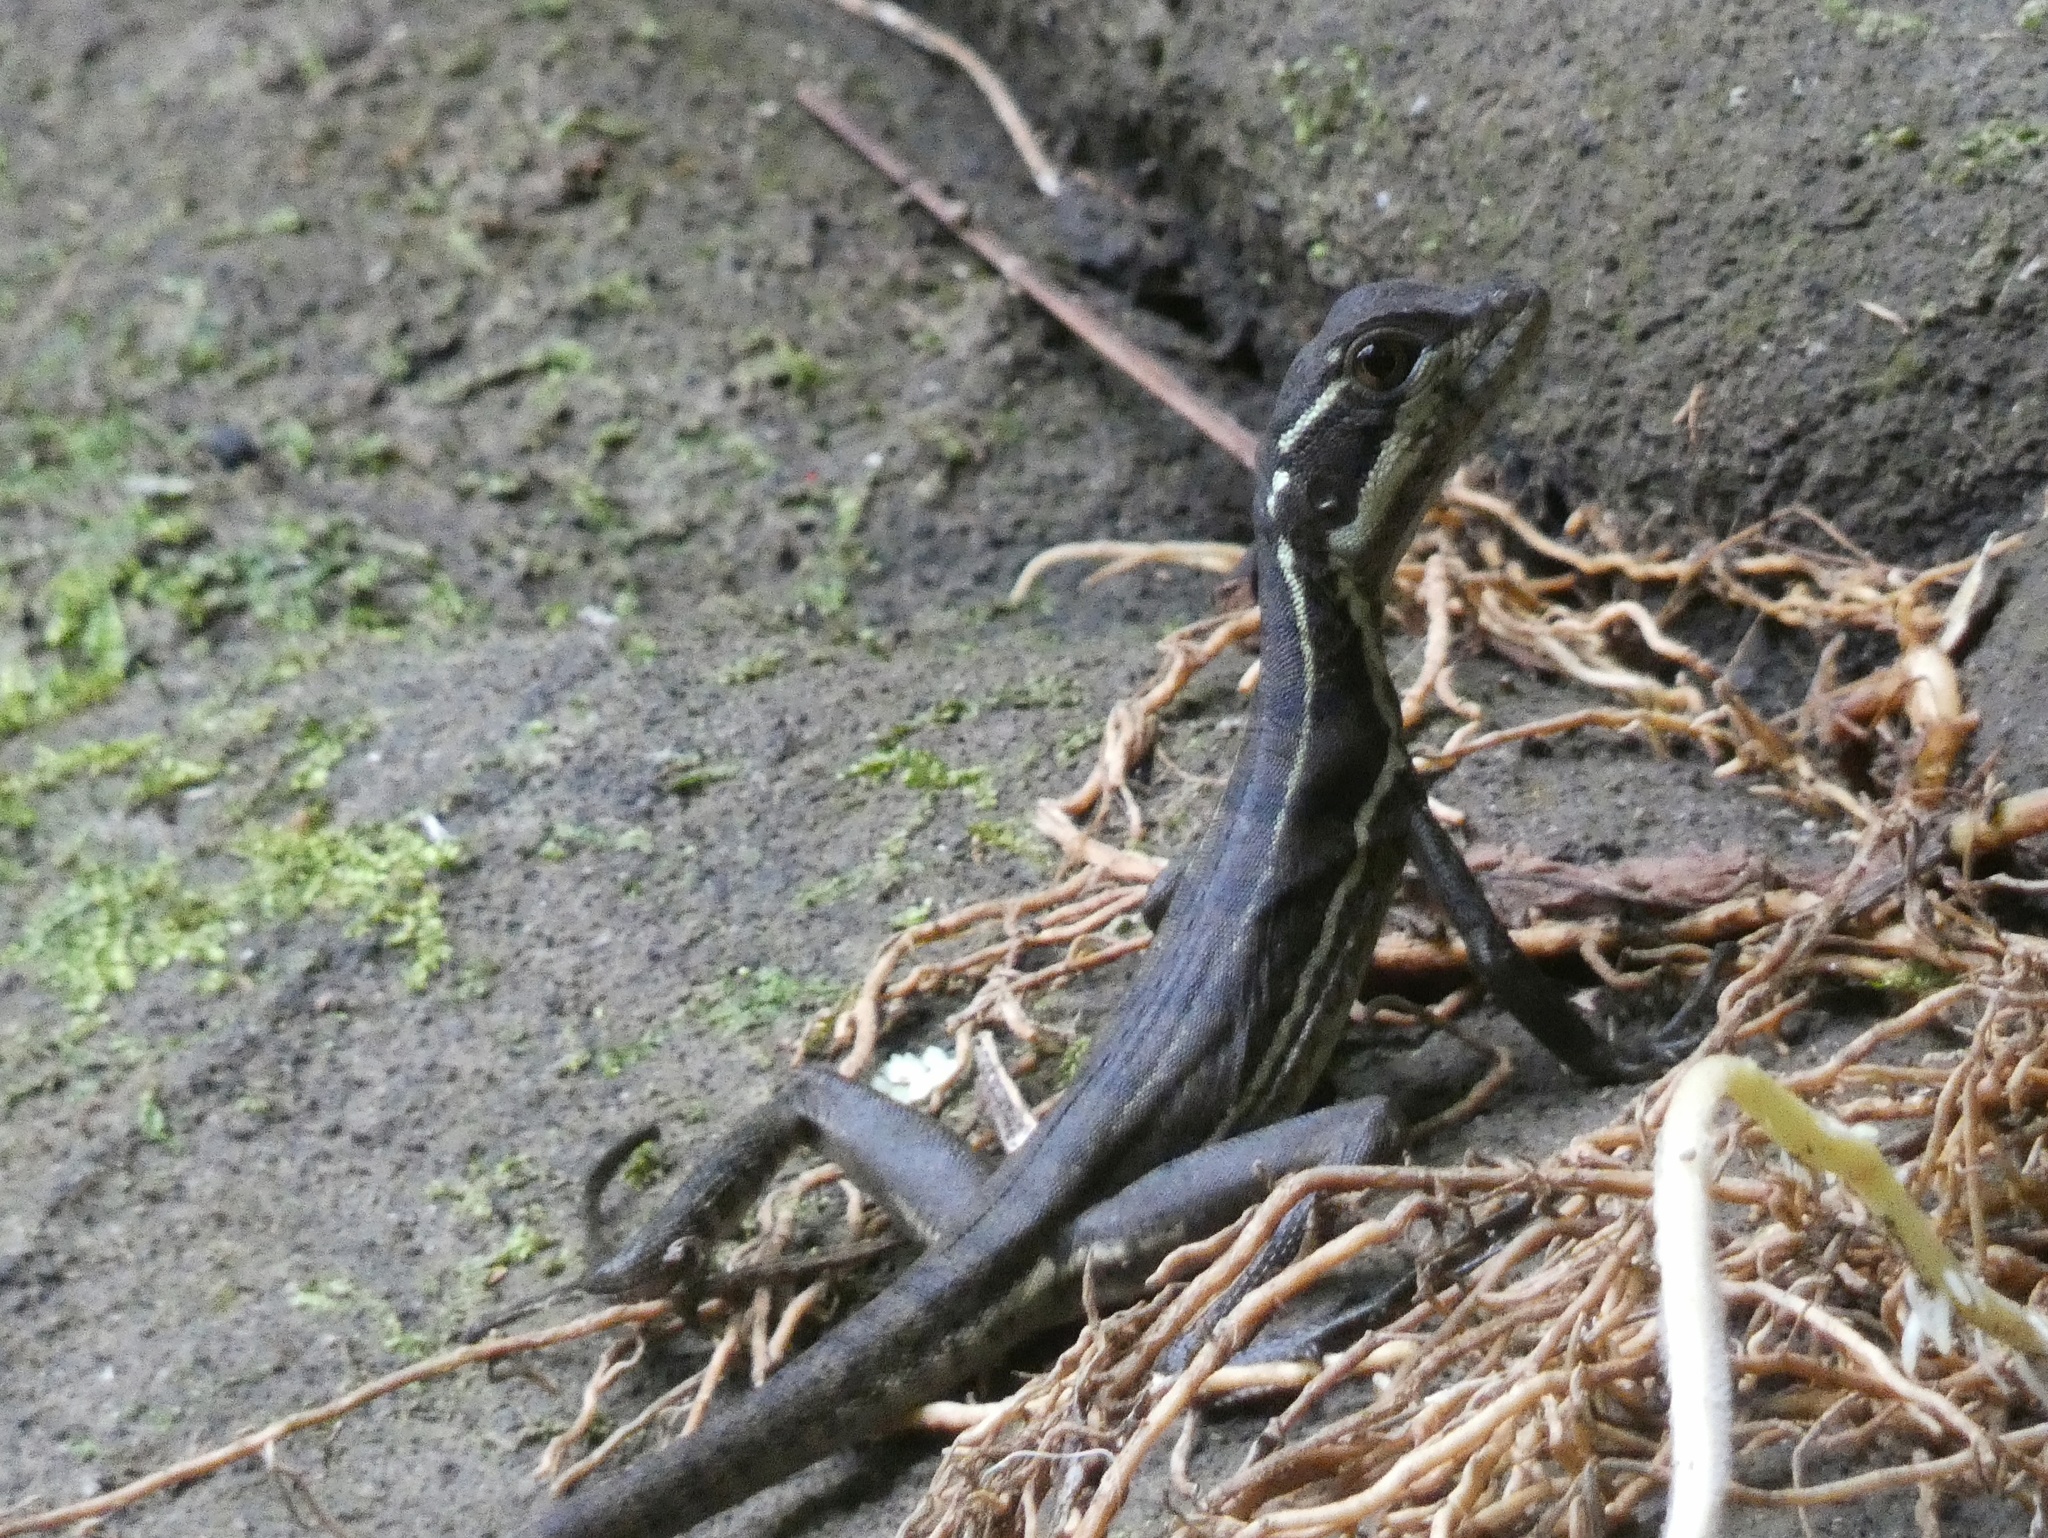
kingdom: Animalia
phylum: Chordata
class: Squamata
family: Corytophanidae
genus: Basiliscus
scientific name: Basiliscus basiliscus
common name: Common basilisk
